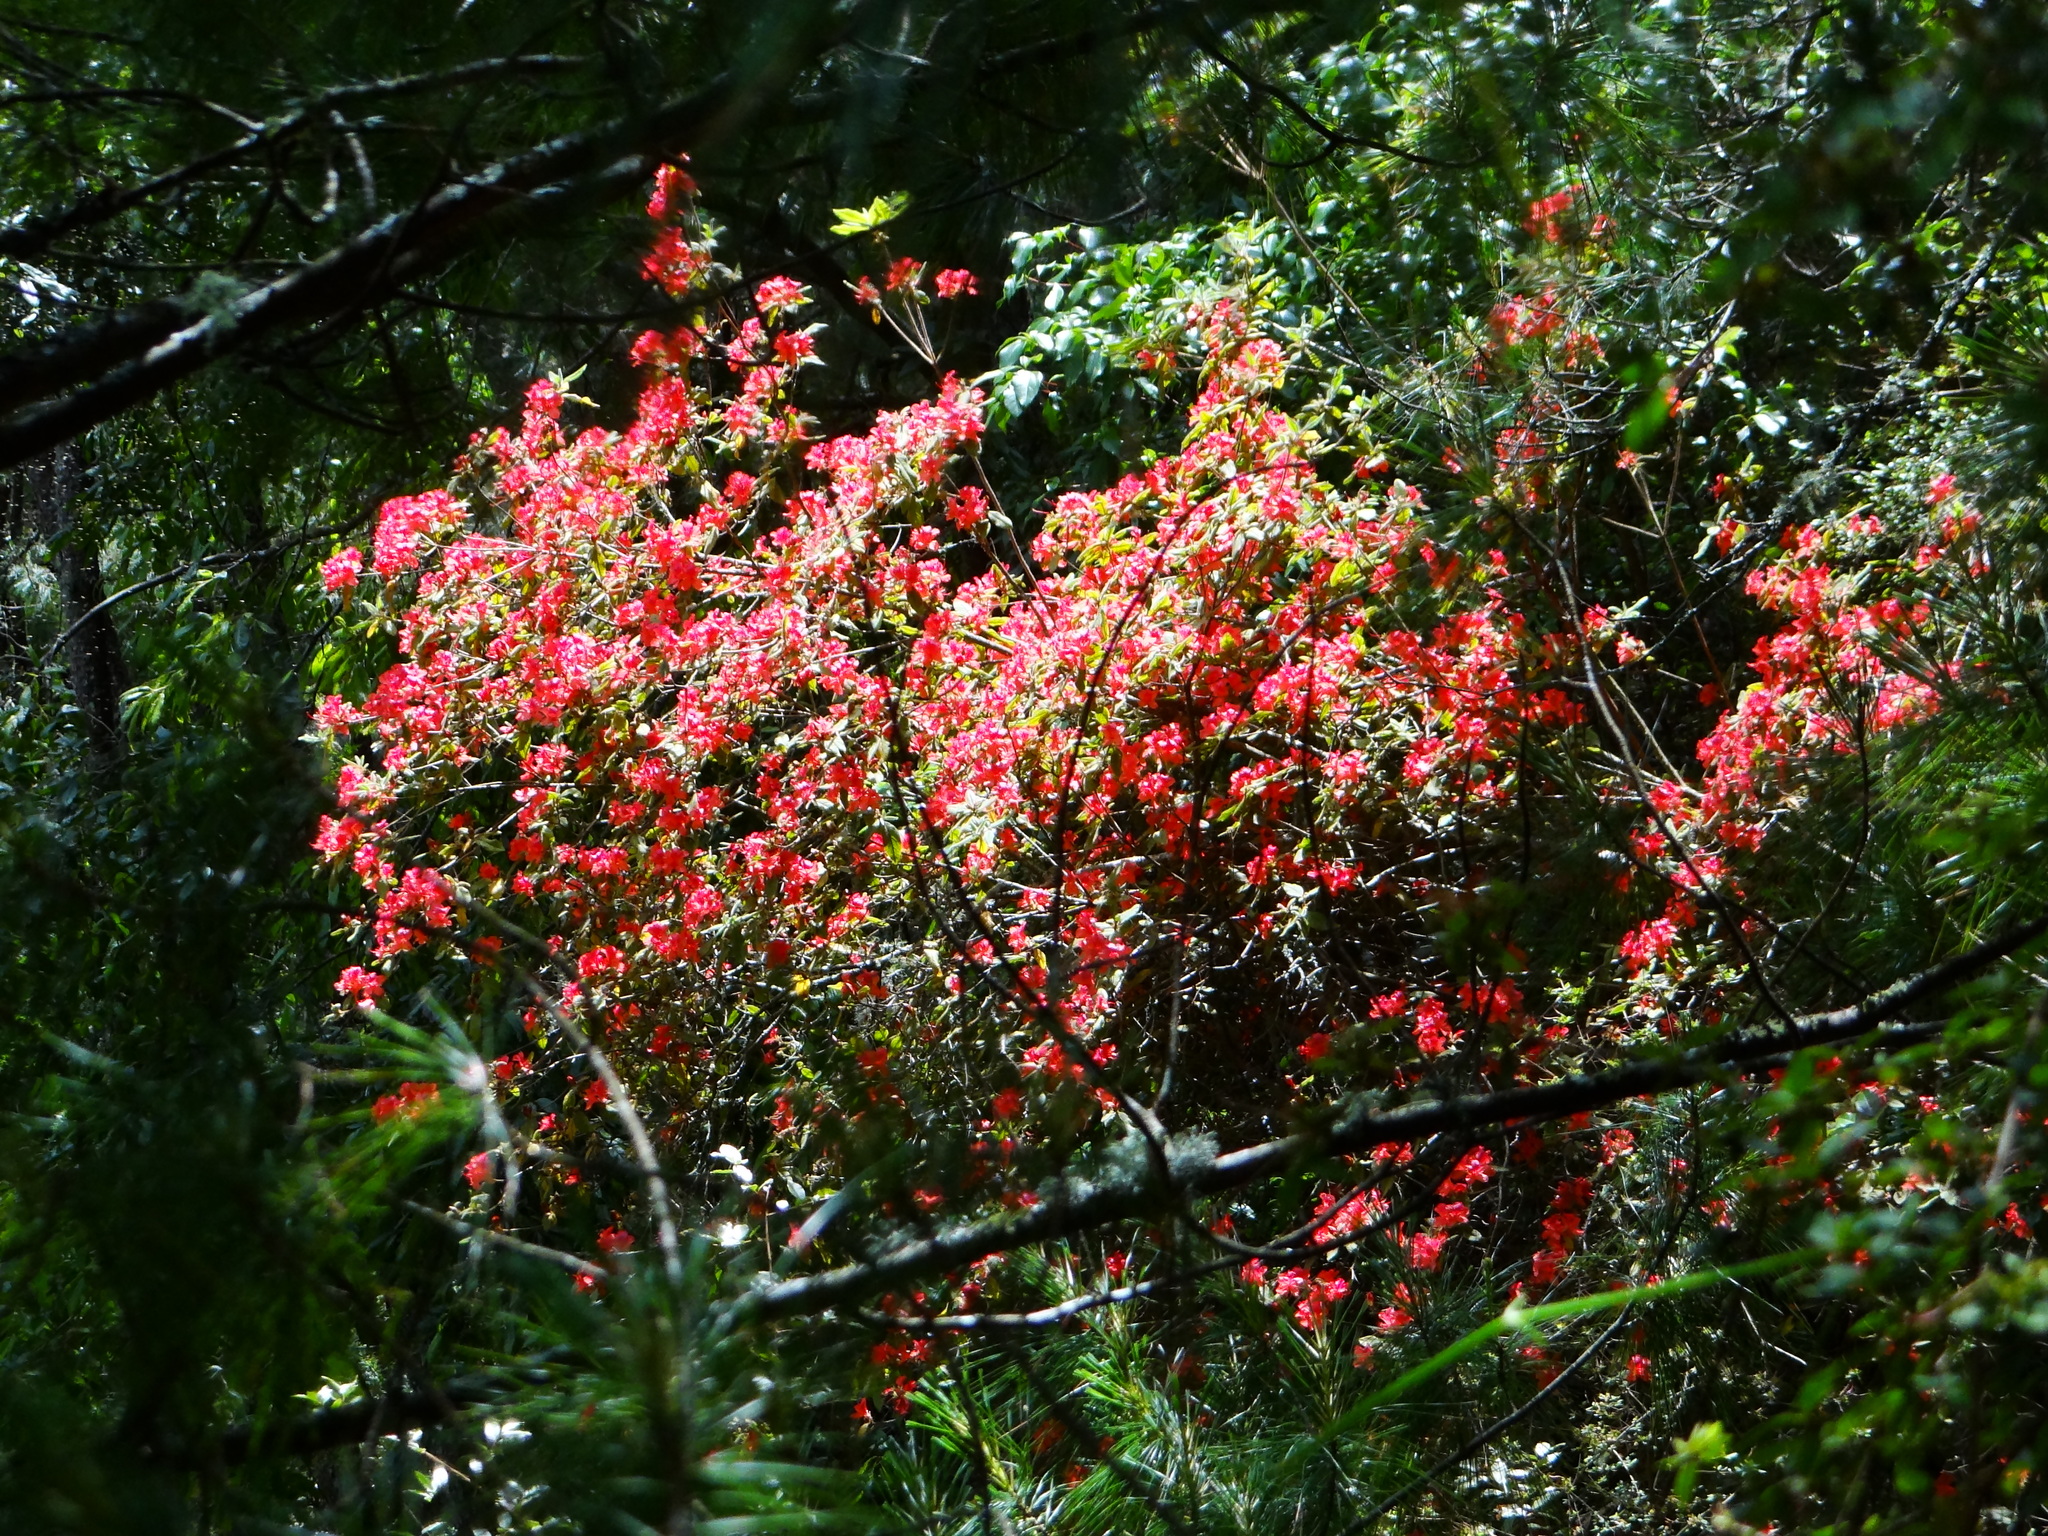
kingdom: Plantae
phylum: Tracheophyta
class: Magnoliopsida
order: Ericales
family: Ericaceae
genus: Rhododendron
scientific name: Rhododendron oldhamii
